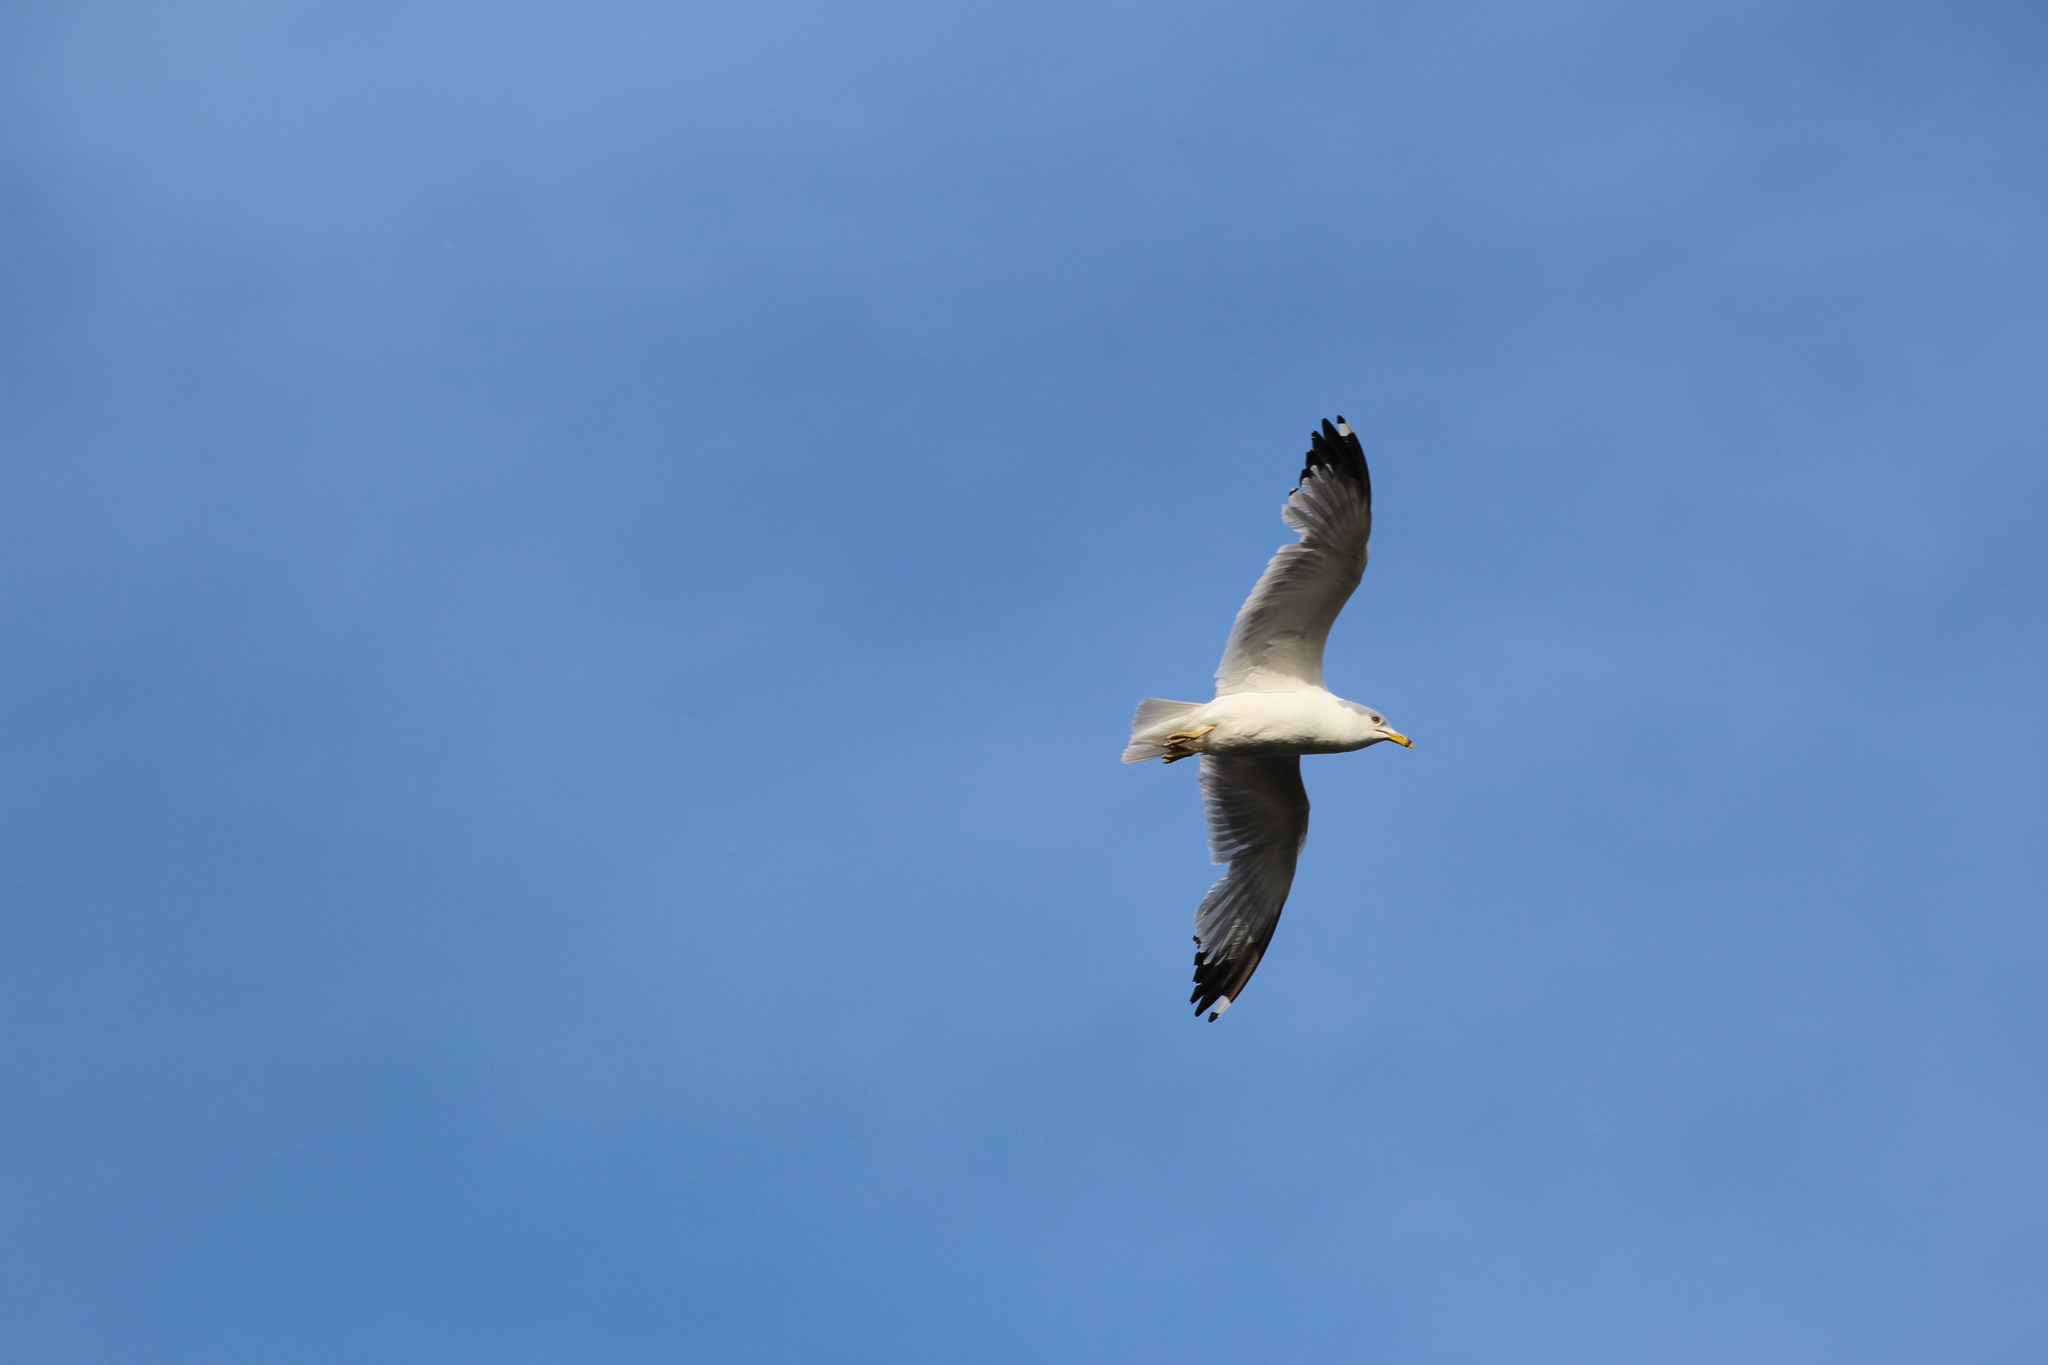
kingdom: Animalia
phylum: Chordata
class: Aves
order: Charadriiformes
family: Laridae
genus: Larus
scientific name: Larus delawarensis
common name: Ring-billed gull
